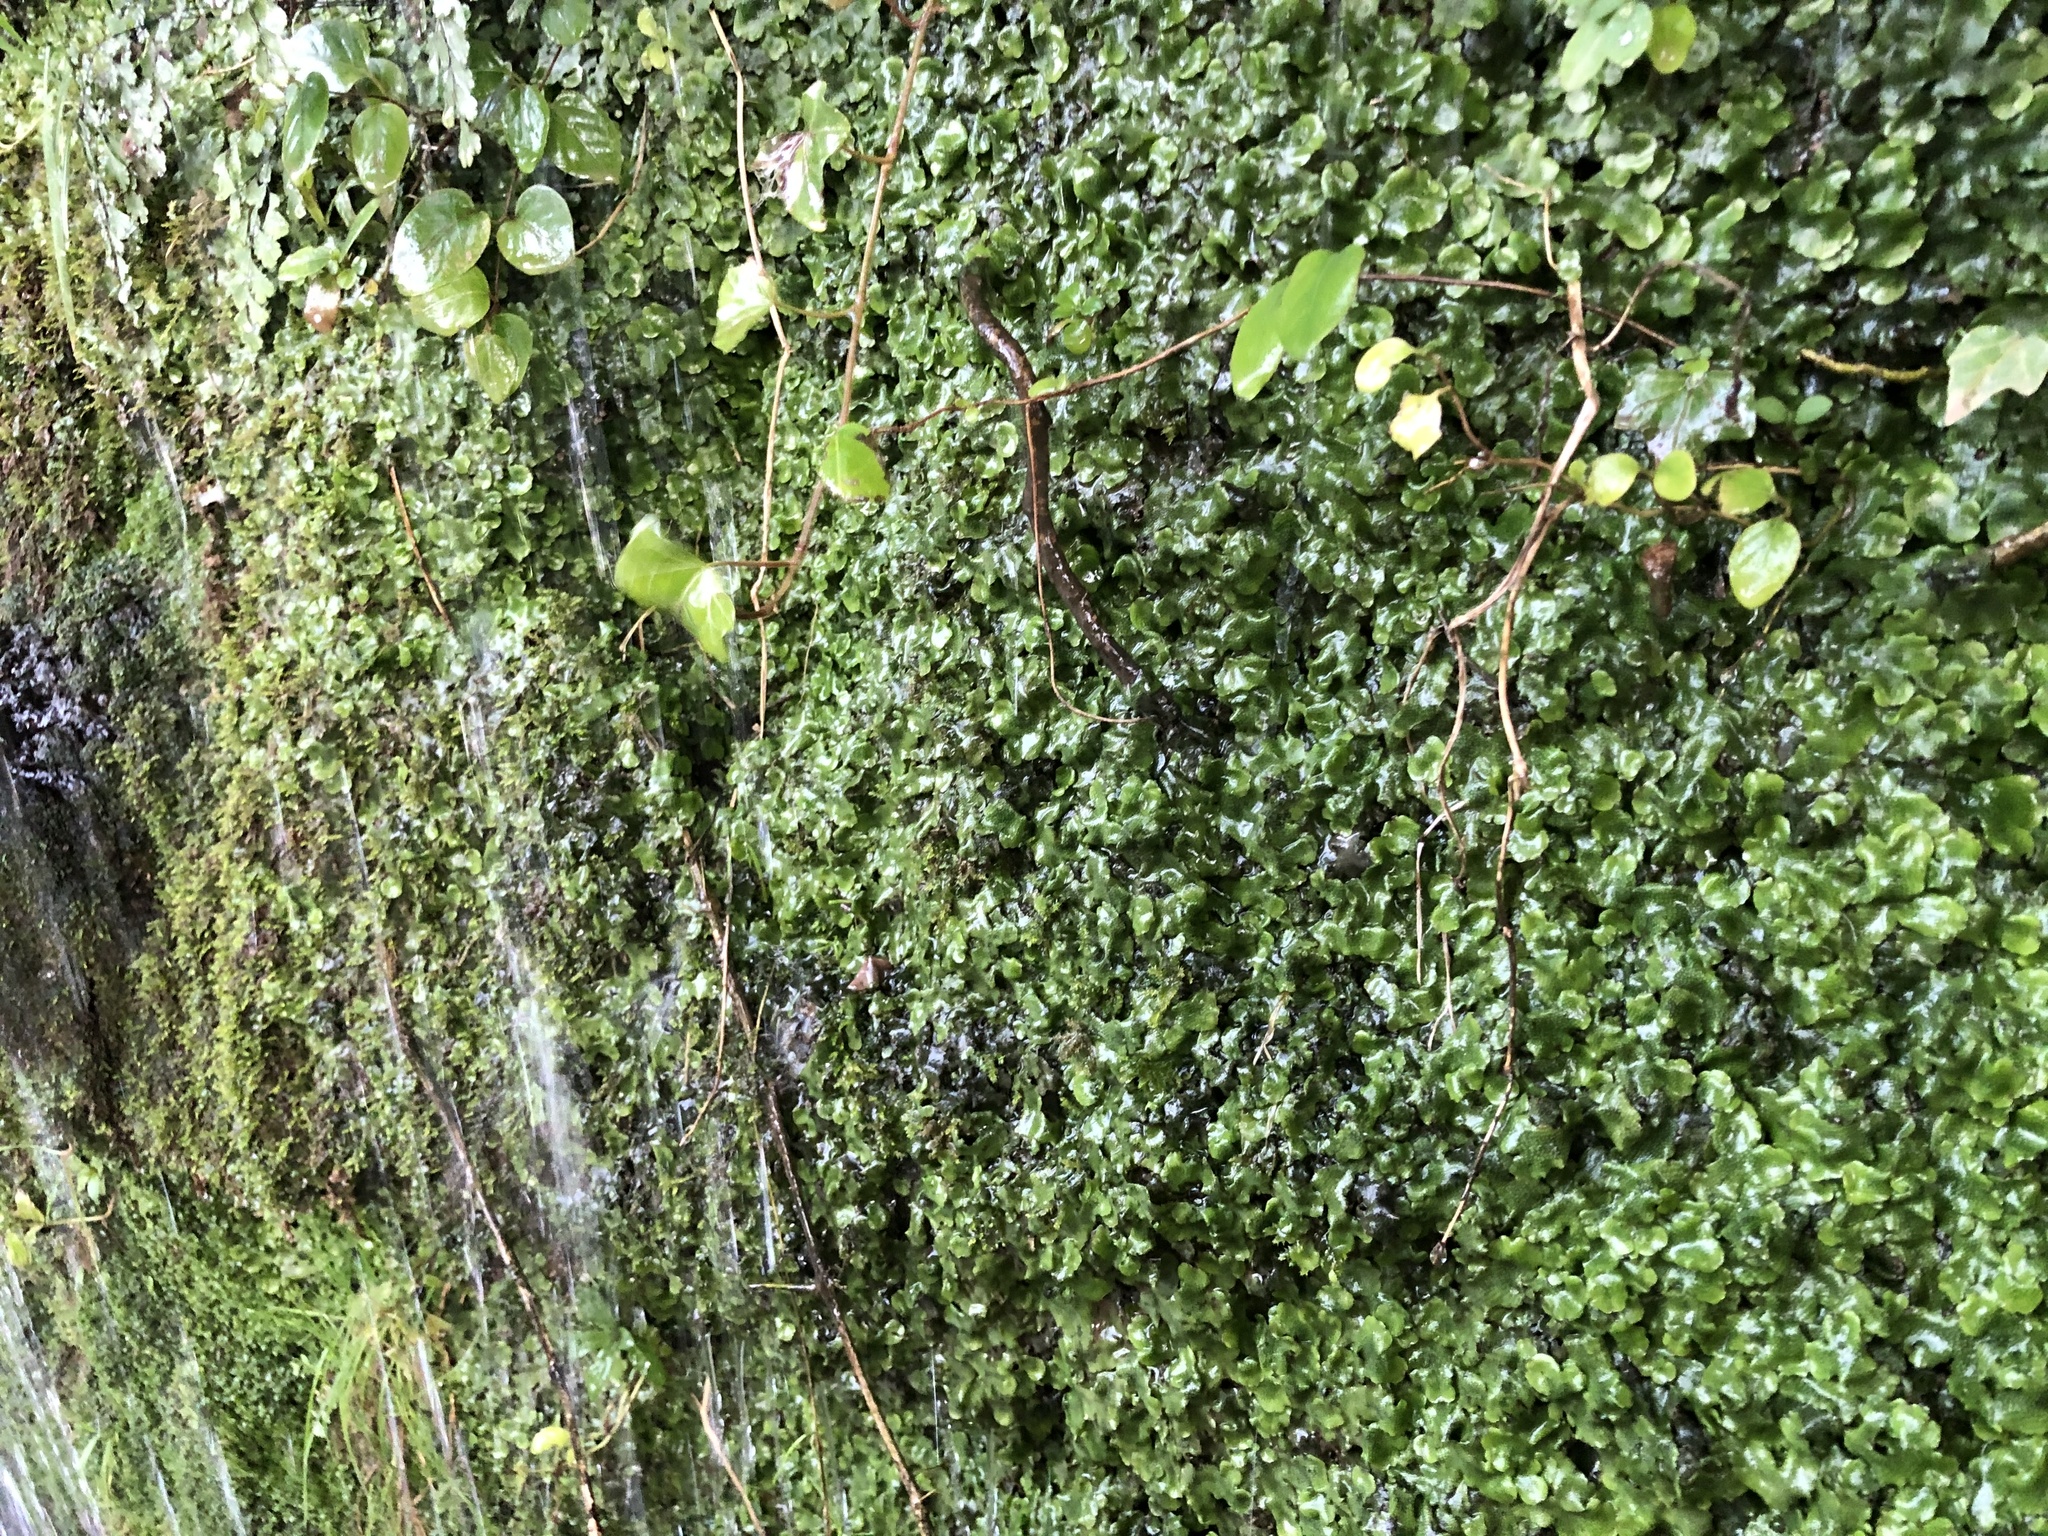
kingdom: Plantae
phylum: Marchantiophyta
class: Marchantiopsida
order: Marchantiales
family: Conocephalaceae
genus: Conocephalum
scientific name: Conocephalum conicum
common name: Great scented liverwort
